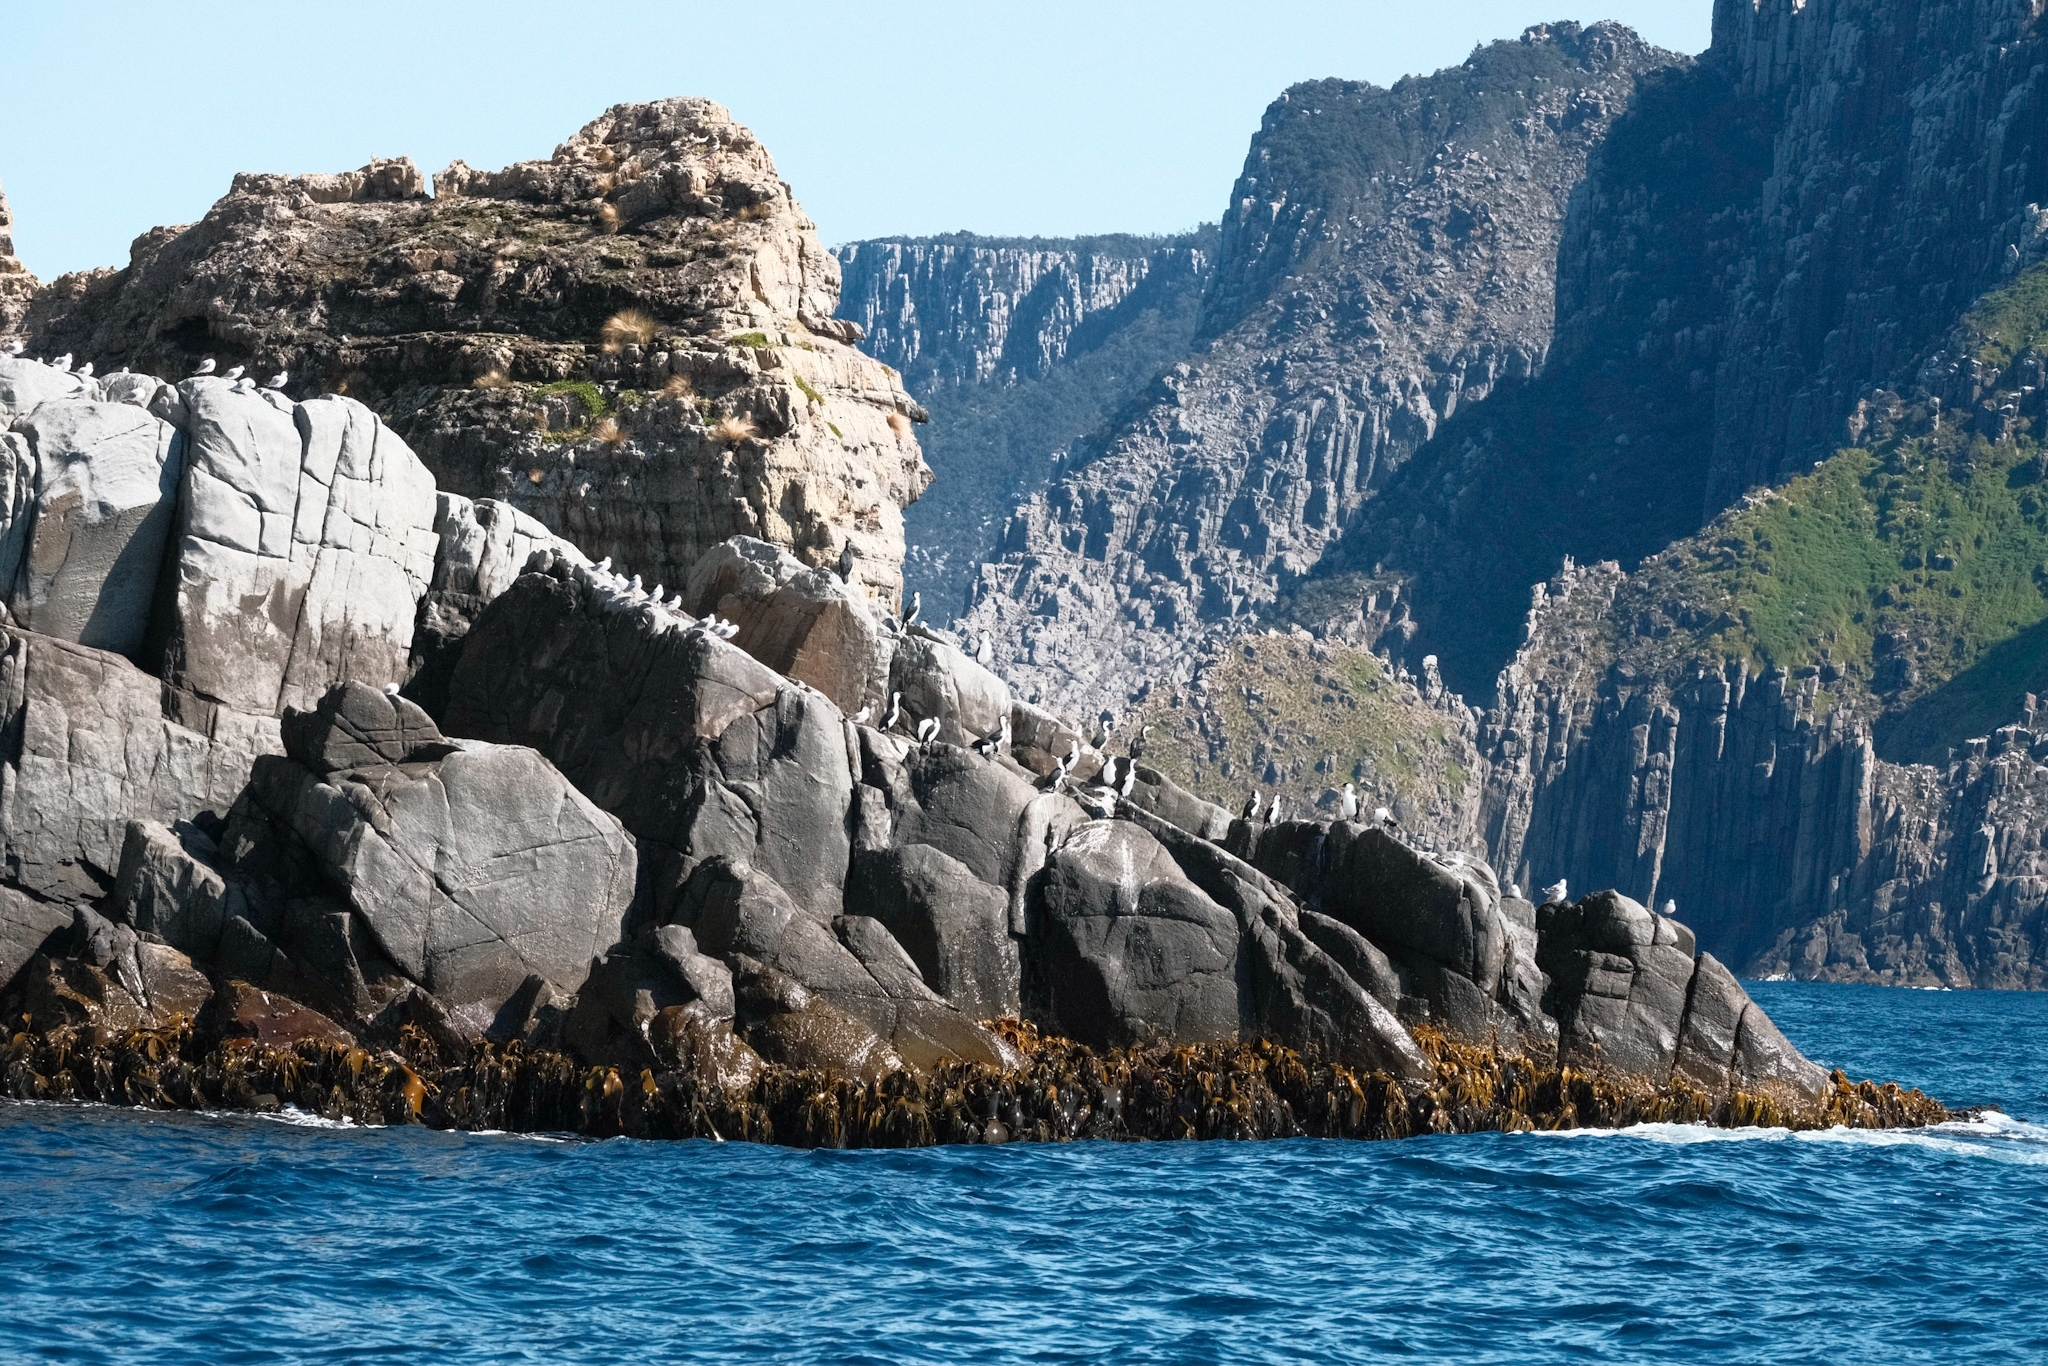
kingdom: Animalia
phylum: Chordata
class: Aves
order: Suliformes
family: Phalacrocoracidae
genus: Phalacrocorax
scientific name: Phalacrocorax fuscescens
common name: Black-faced cormorant
